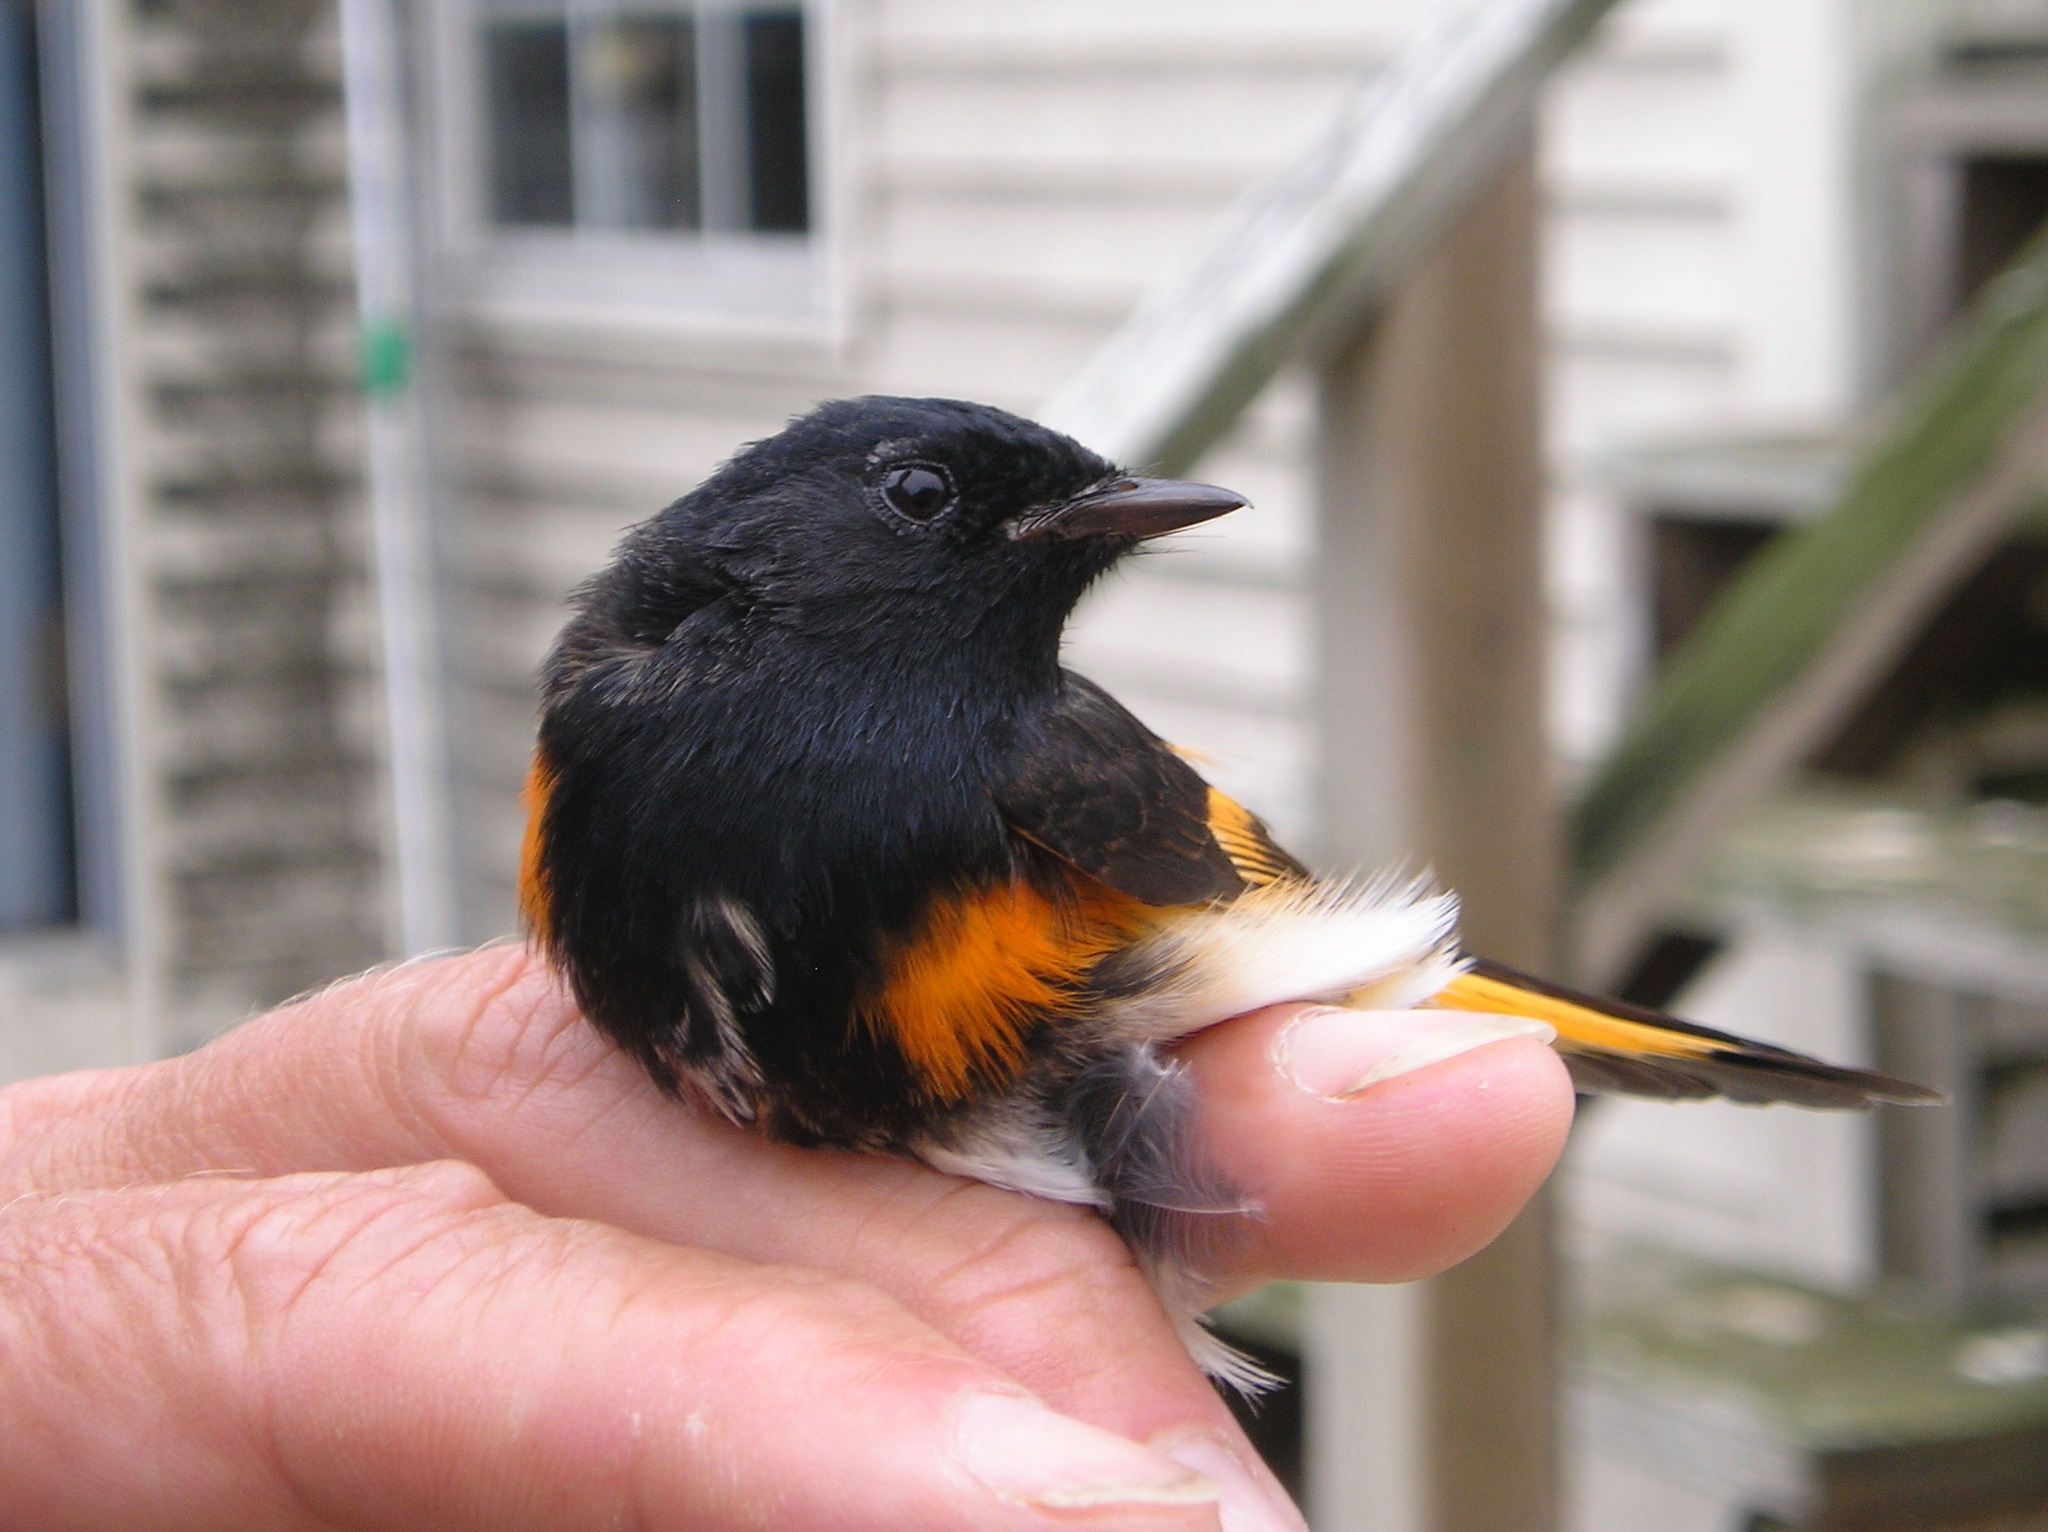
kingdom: Animalia
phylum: Chordata
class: Aves
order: Passeriformes
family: Parulidae
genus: Setophaga
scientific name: Setophaga ruticilla
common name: American redstart
